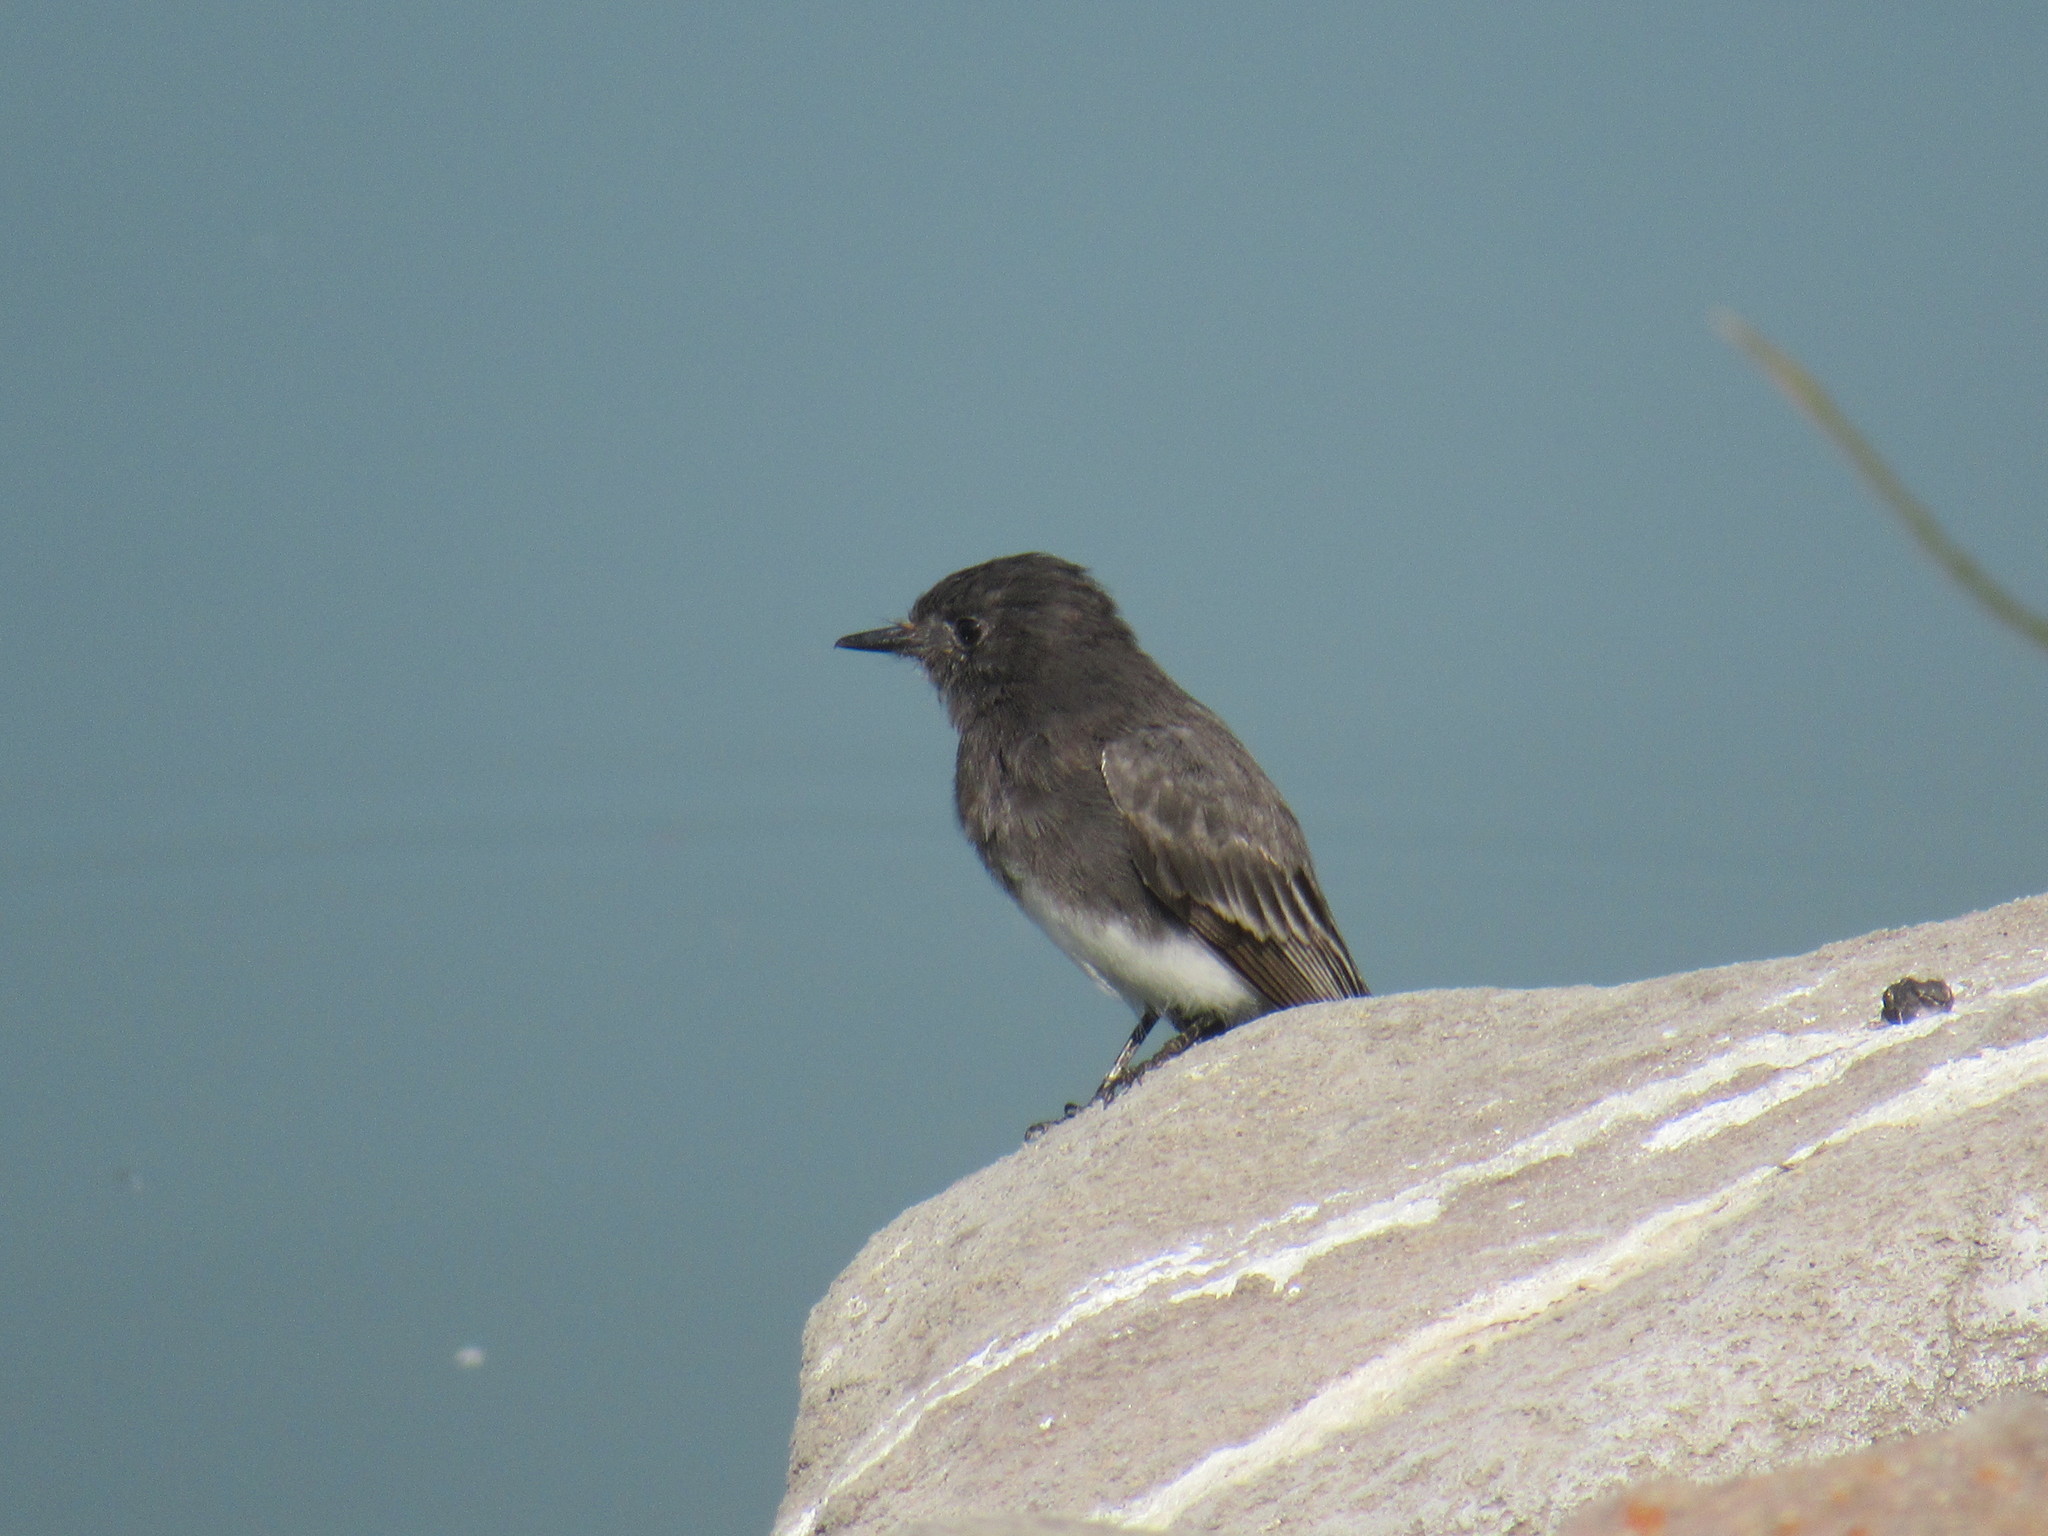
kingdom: Animalia
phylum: Chordata
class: Aves
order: Passeriformes
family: Tyrannidae
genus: Sayornis
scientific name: Sayornis nigricans
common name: Black phoebe
